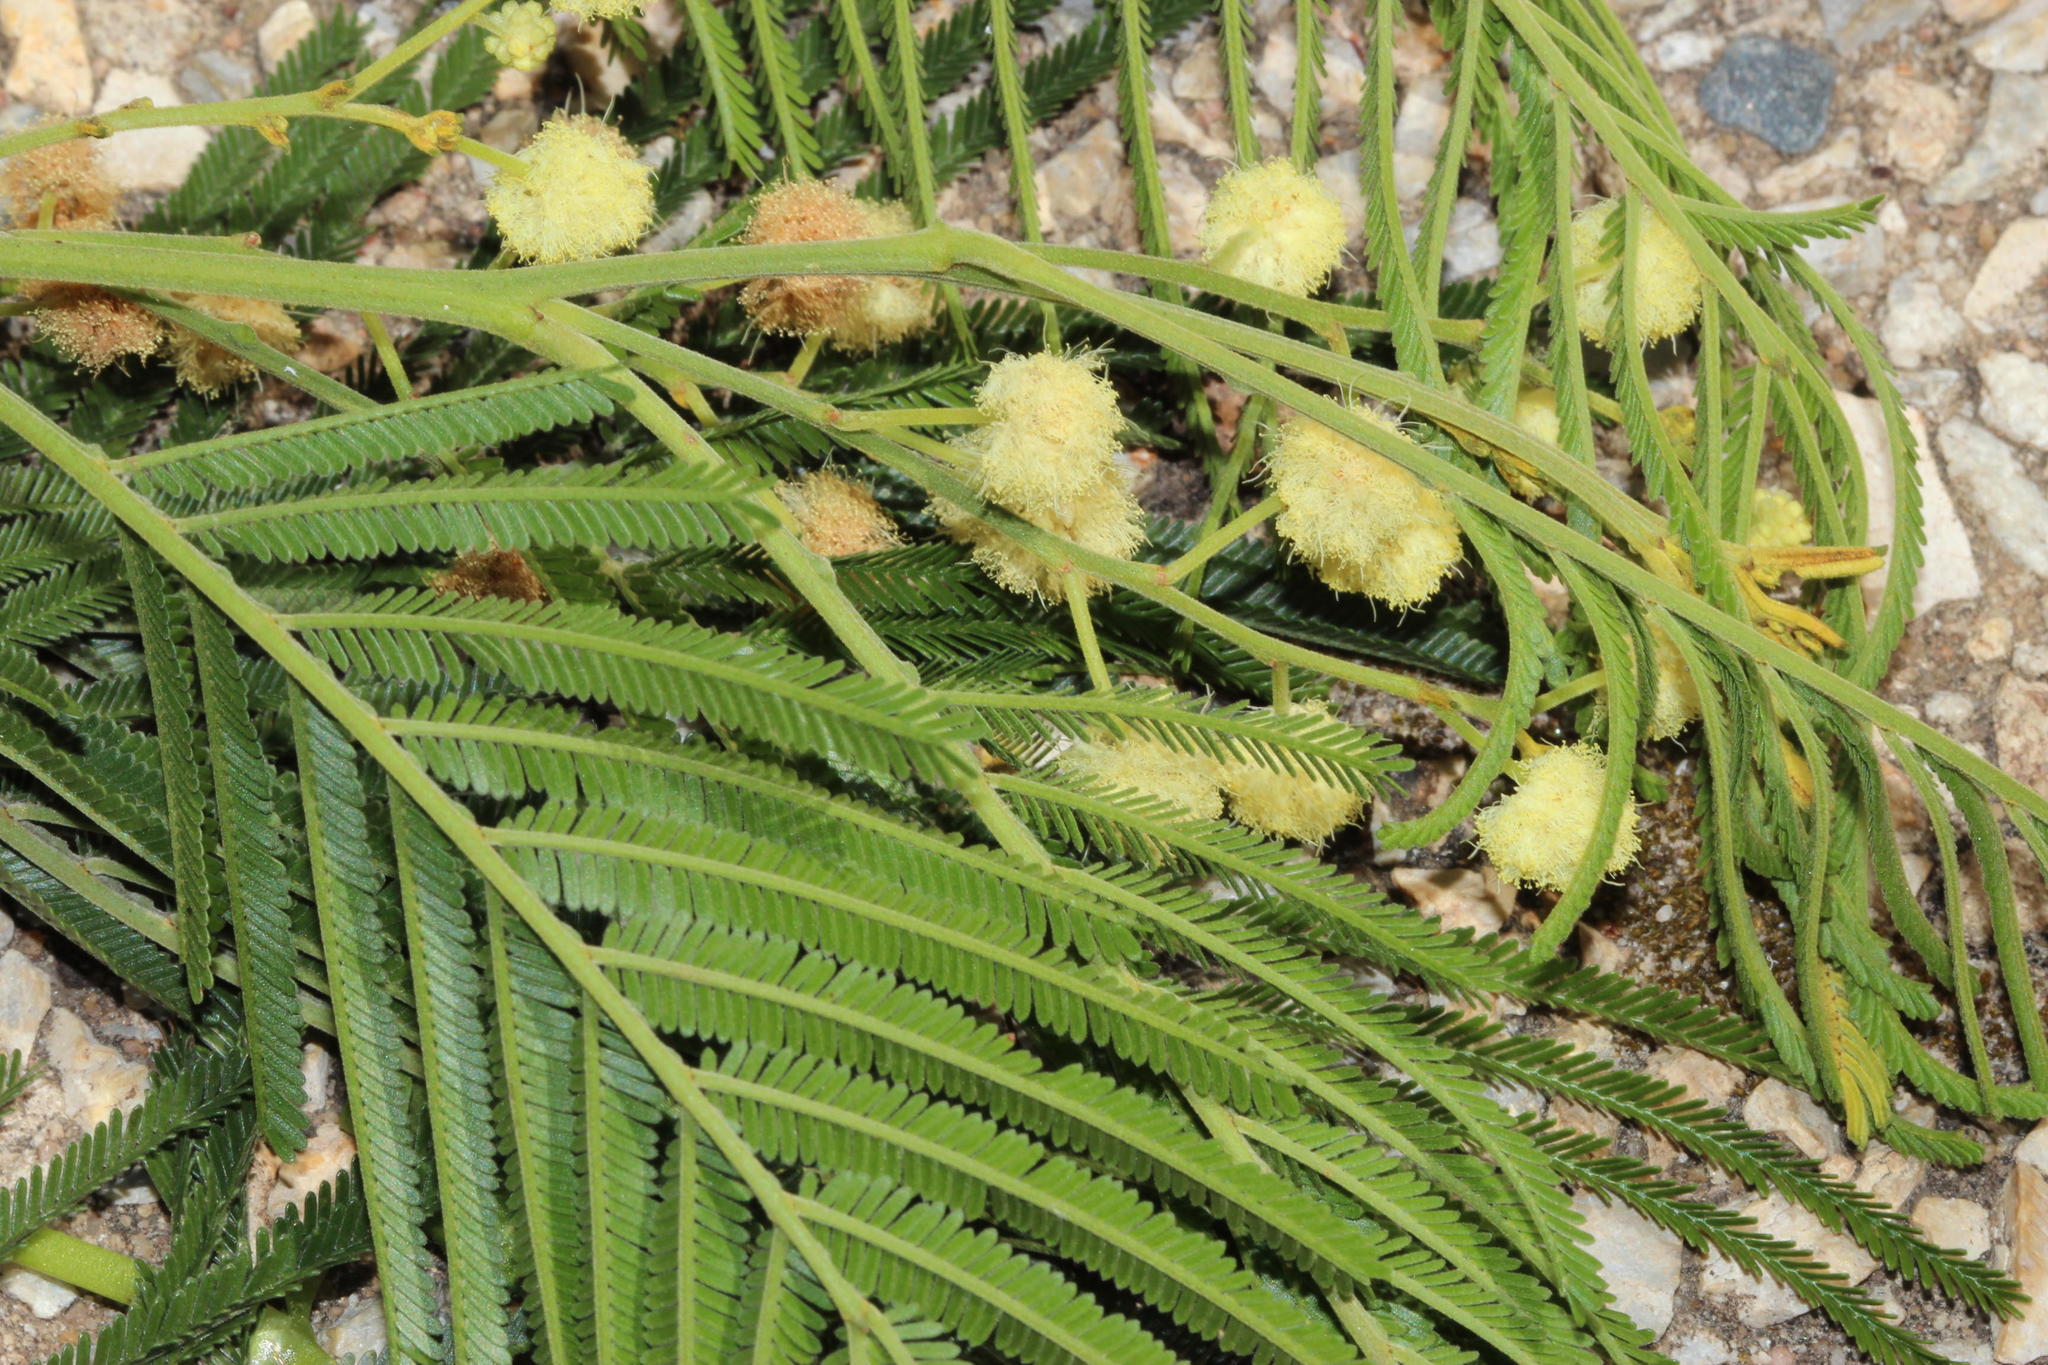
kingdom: Plantae
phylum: Tracheophyta
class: Magnoliopsida
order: Fabales
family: Fabaceae
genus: Acacia
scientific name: Acacia mearnsii
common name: Black wattle
